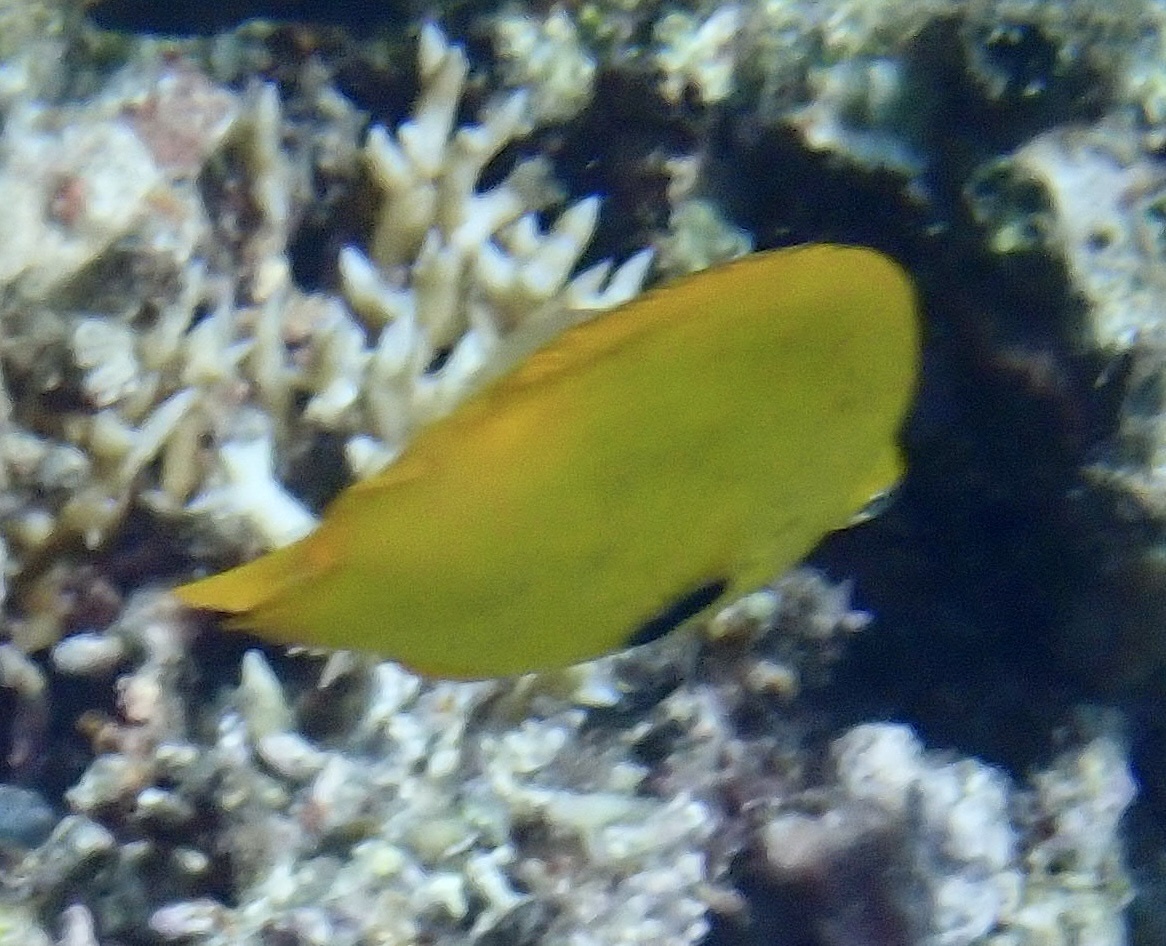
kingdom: Animalia
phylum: Chordata
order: Perciformes
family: Pomacentridae
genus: Pomacentrus
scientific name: Pomacentrus sulfureus
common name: Sulfur damsel
